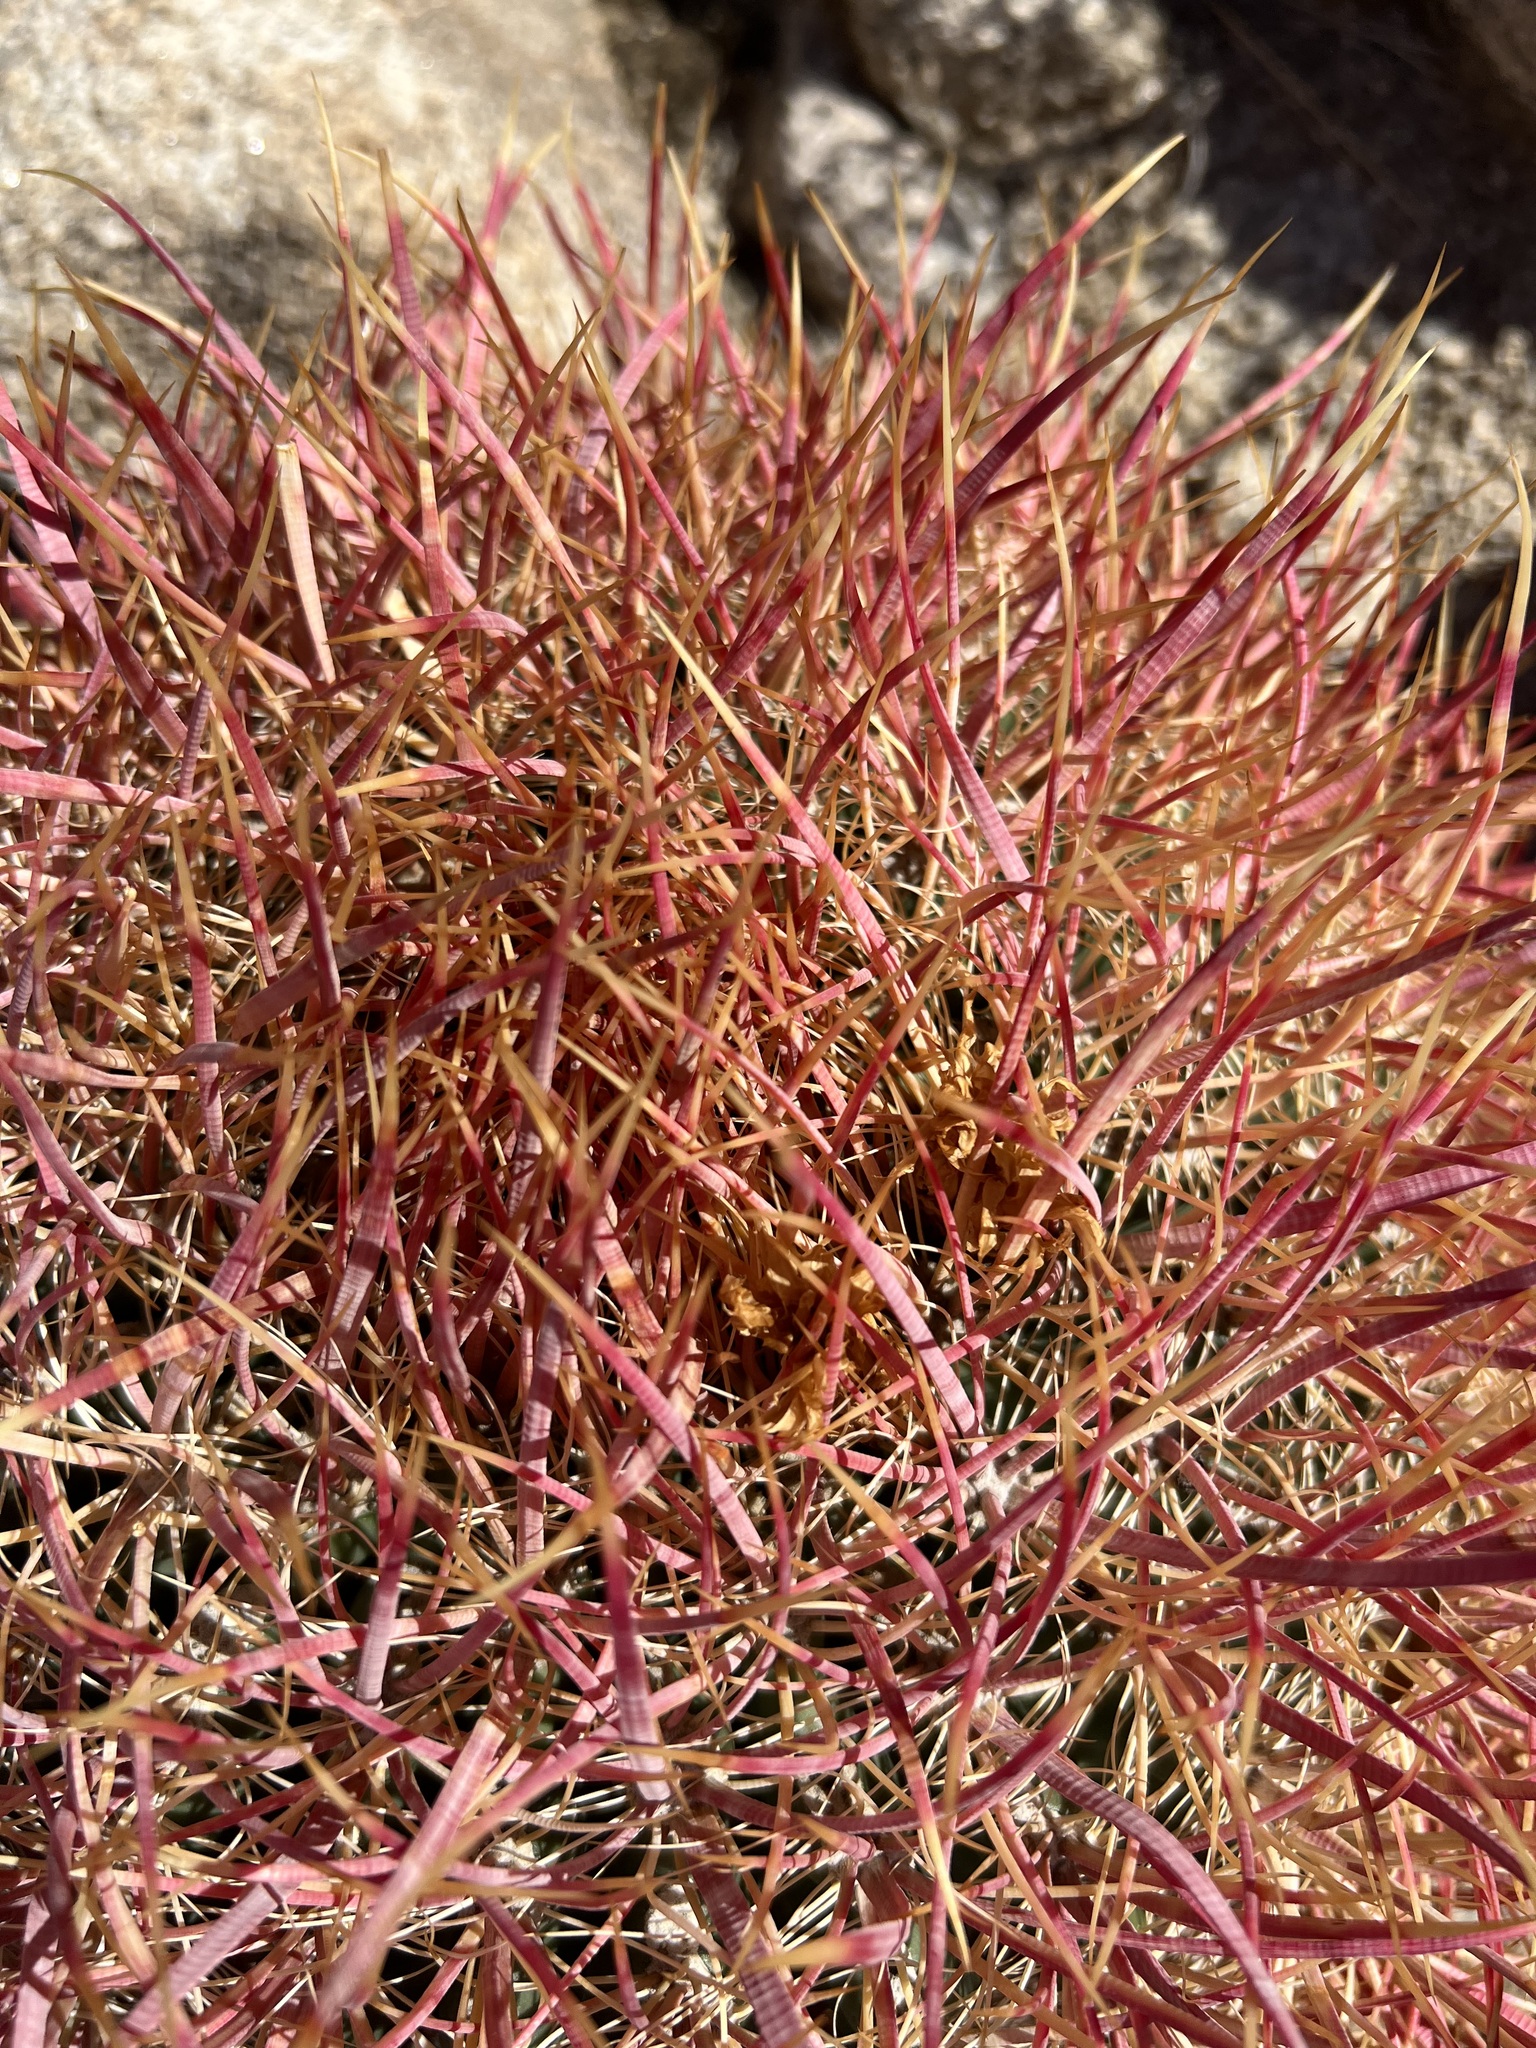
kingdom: Plantae
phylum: Tracheophyta
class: Magnoliopsida
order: Caryophyllales
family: Cactaceae
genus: Ferocactus
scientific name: Ferocactus cylindraceus
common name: California barrel cactus
